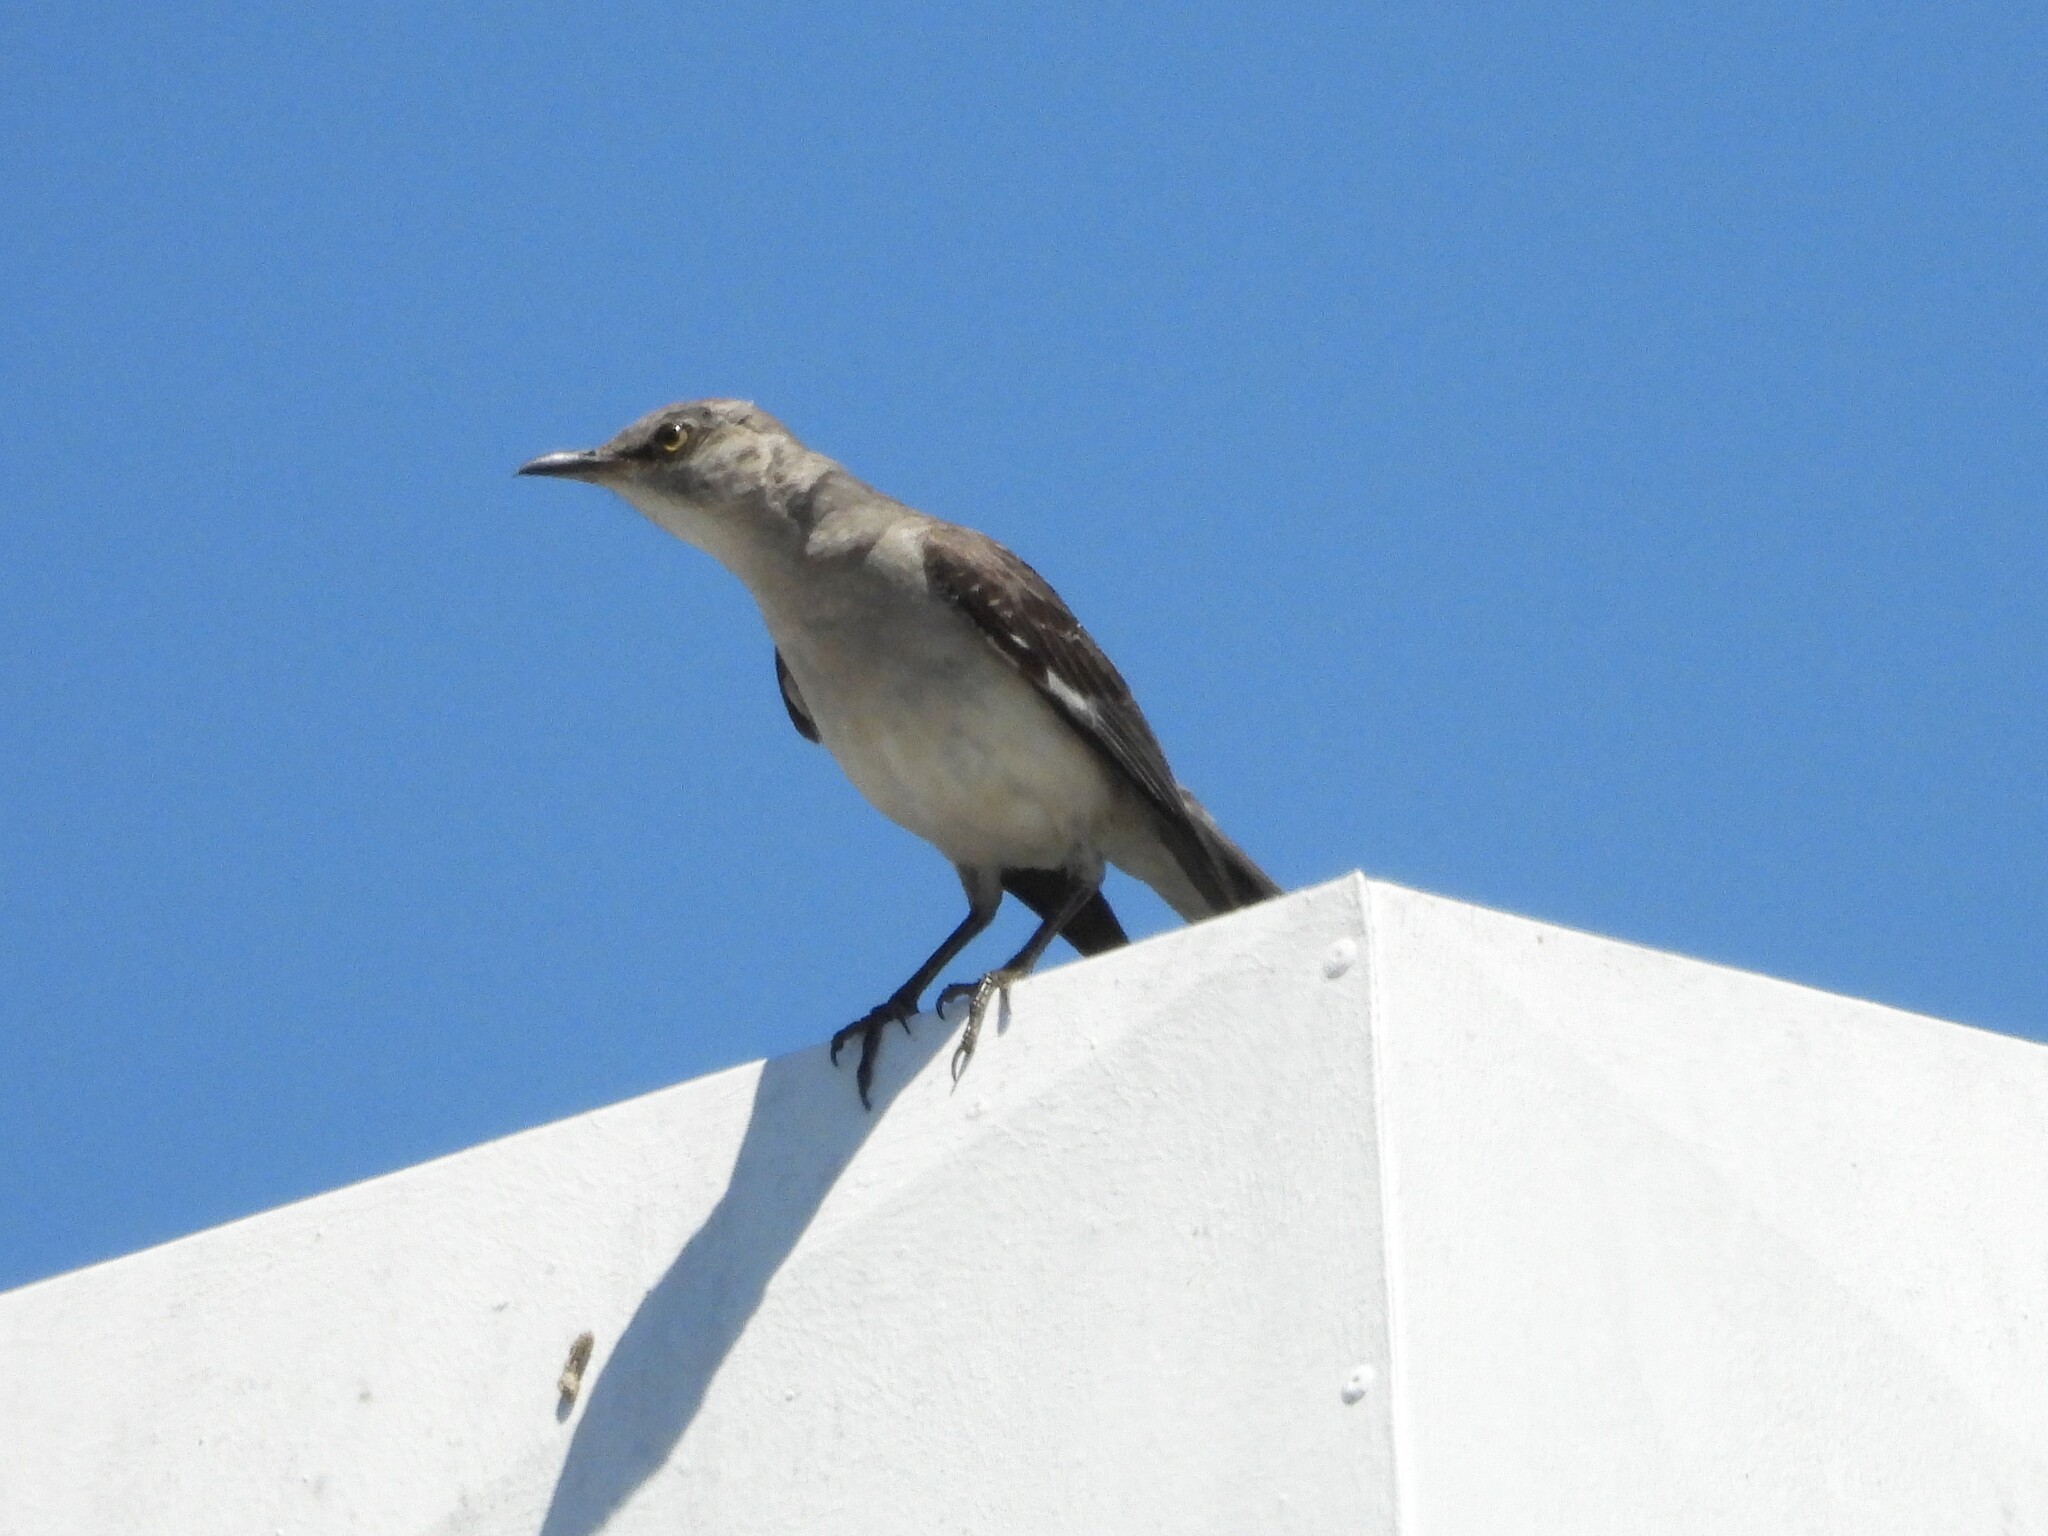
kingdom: Animalia
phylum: Chordata
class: Aves
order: Passeriformes
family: Mimidae
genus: Mimus
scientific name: Mimus polyglottos
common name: Northern mockingbird
